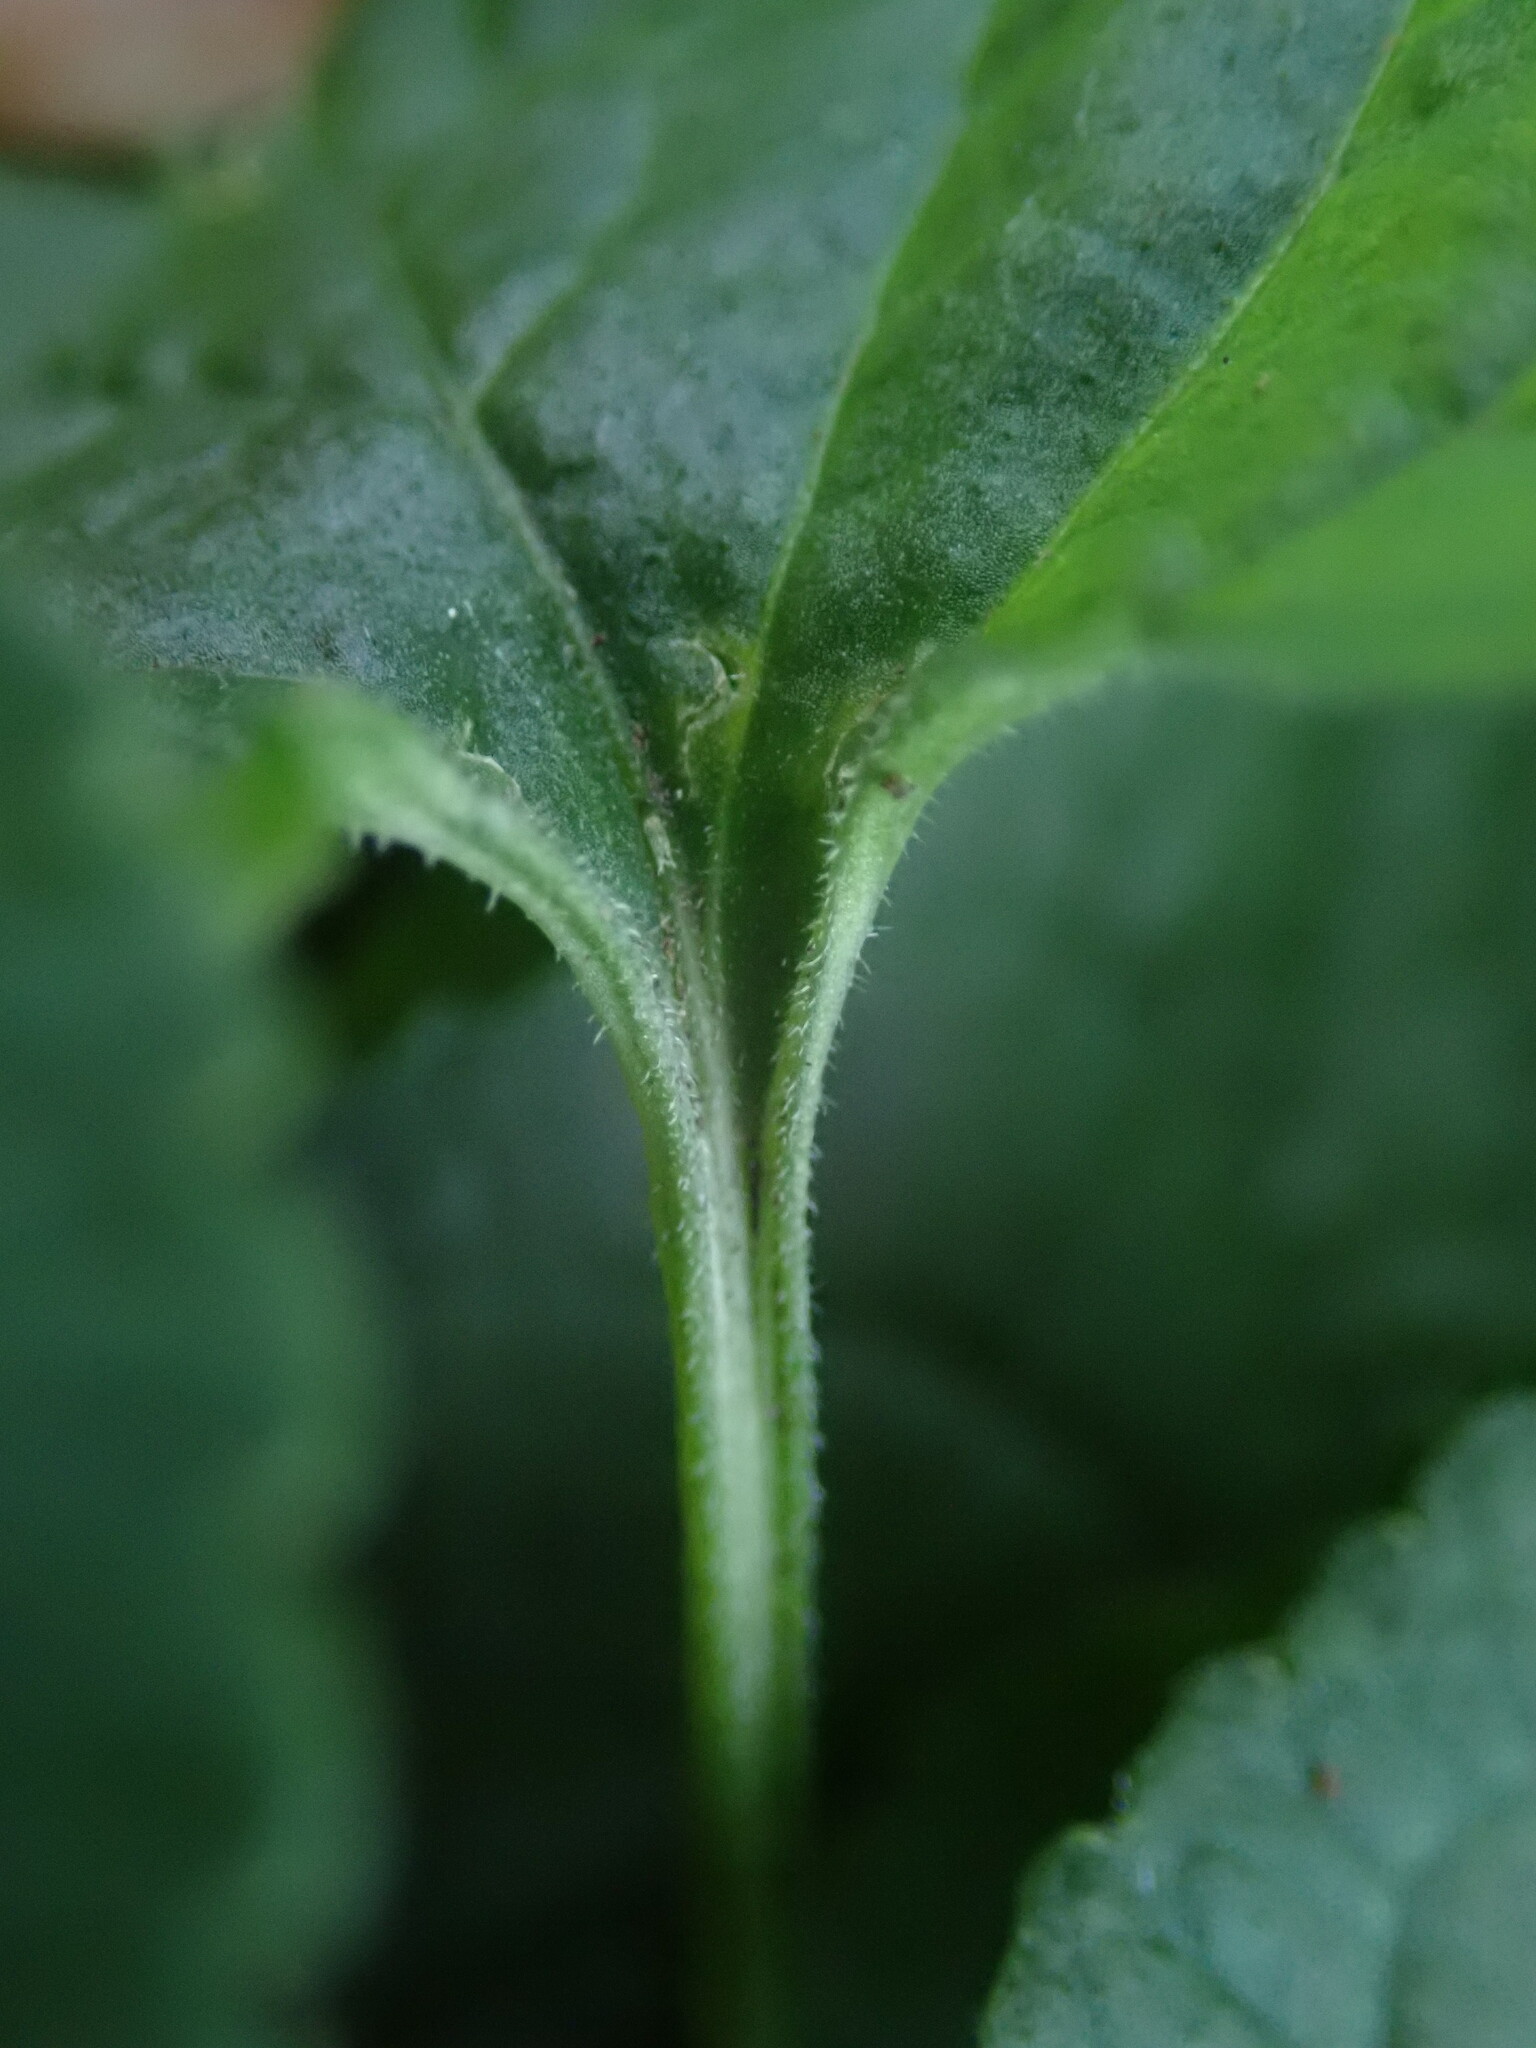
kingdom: Plantae
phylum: Tracheophyta
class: Magnoliopsida
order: Malpighiales
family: Violaceae
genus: Viola
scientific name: Viola odorata
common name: Sweet violet
